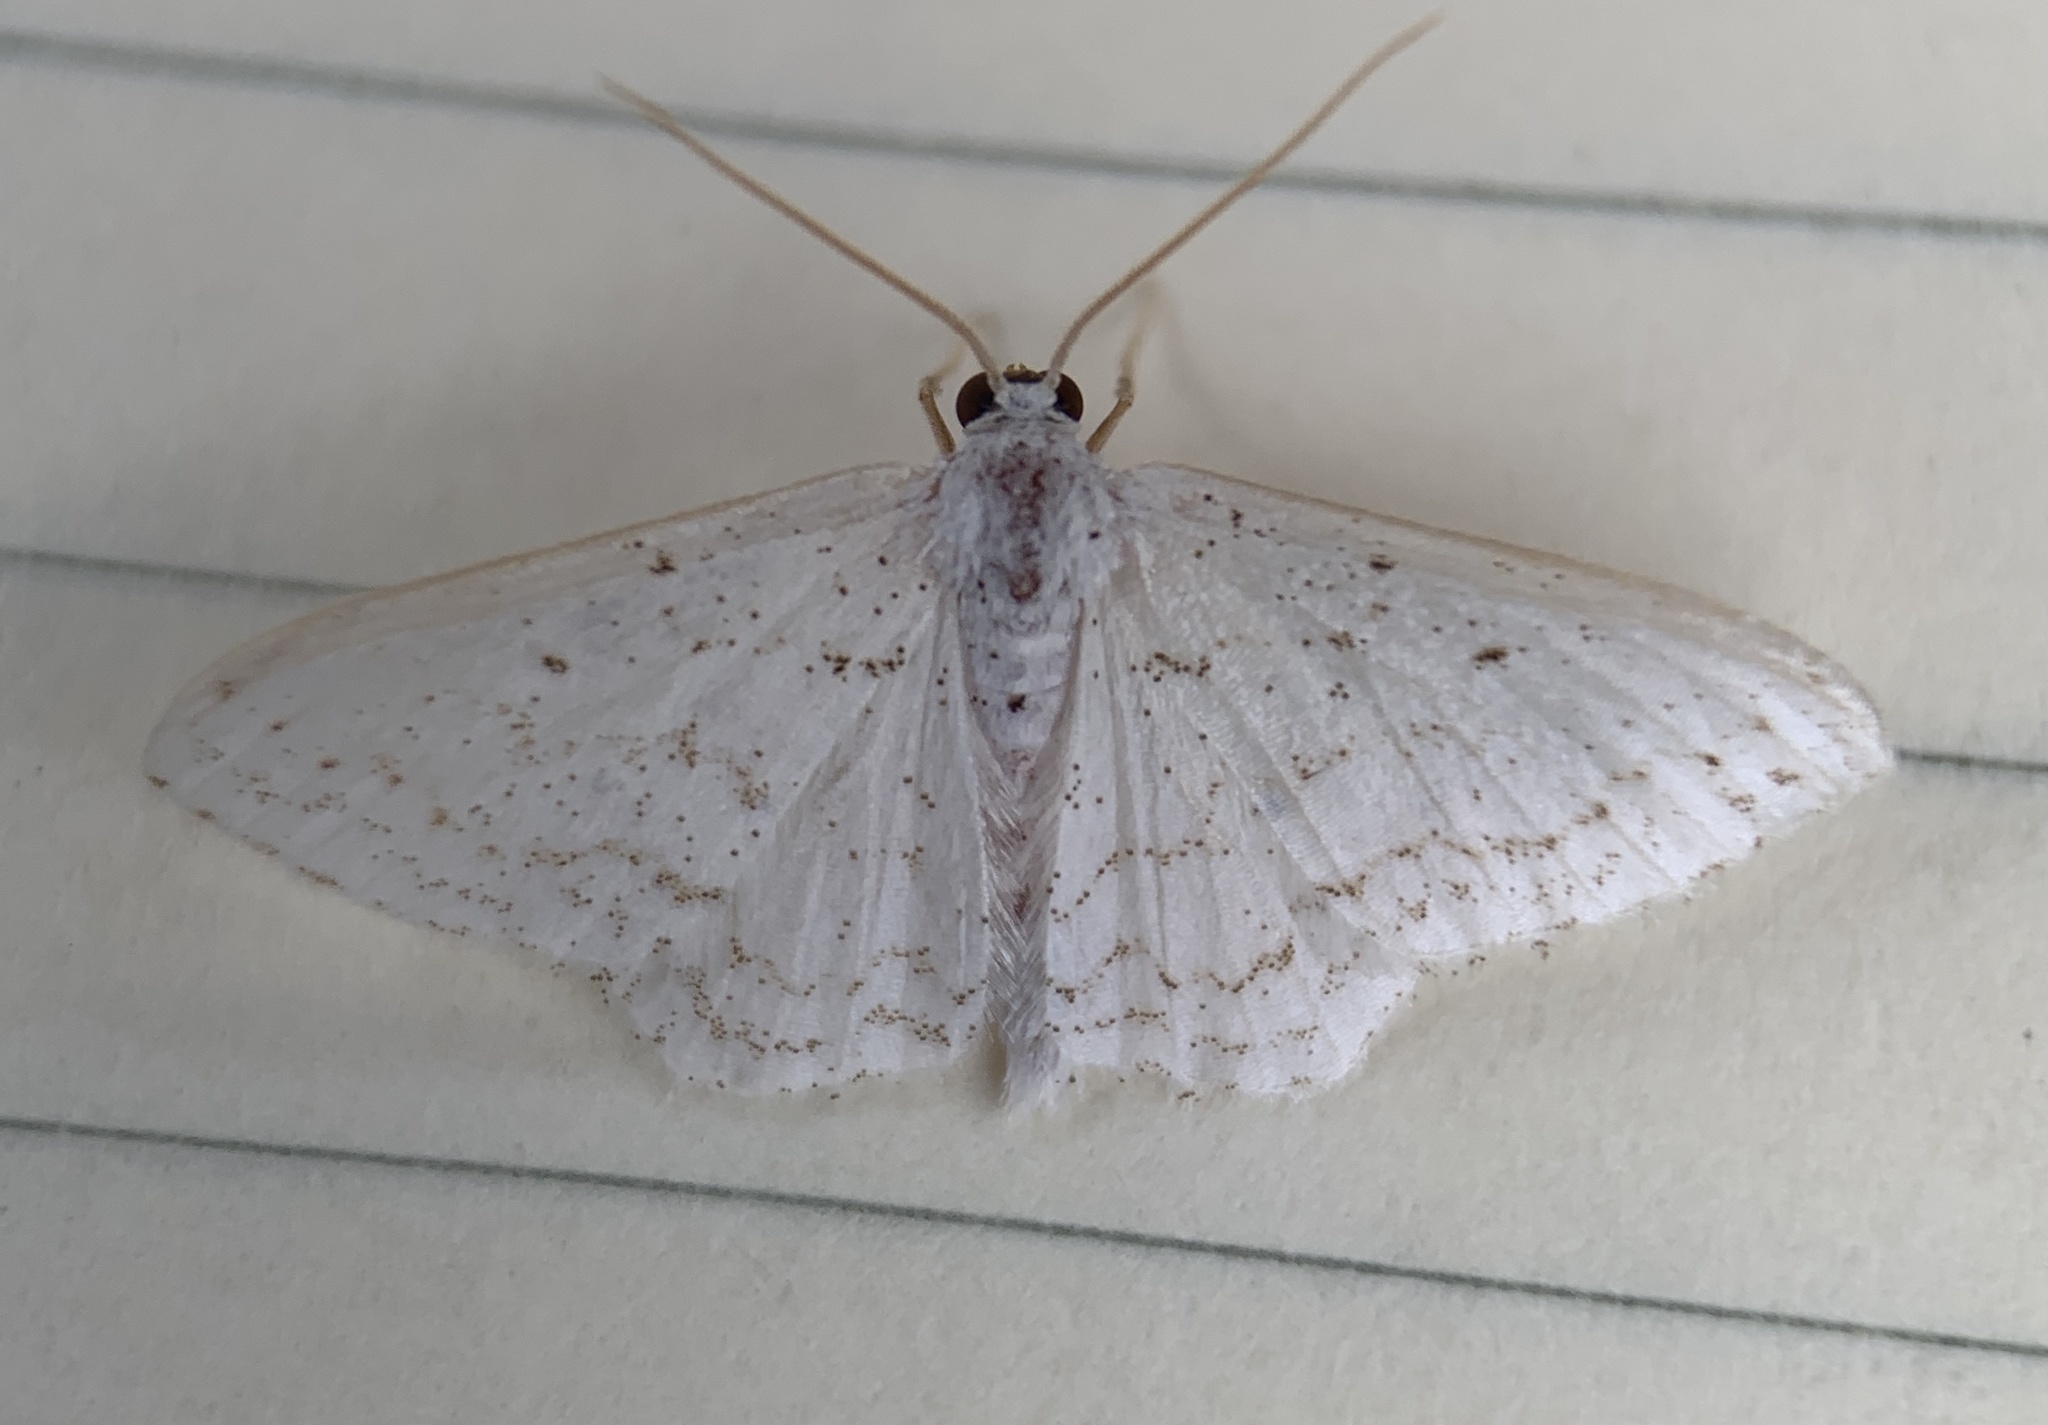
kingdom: Animalia
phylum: Arthropoda
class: Insecta
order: Lepidoptera
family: Geometridae
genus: Idaea
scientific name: Idaea tacturata
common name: Dot-lined wave
